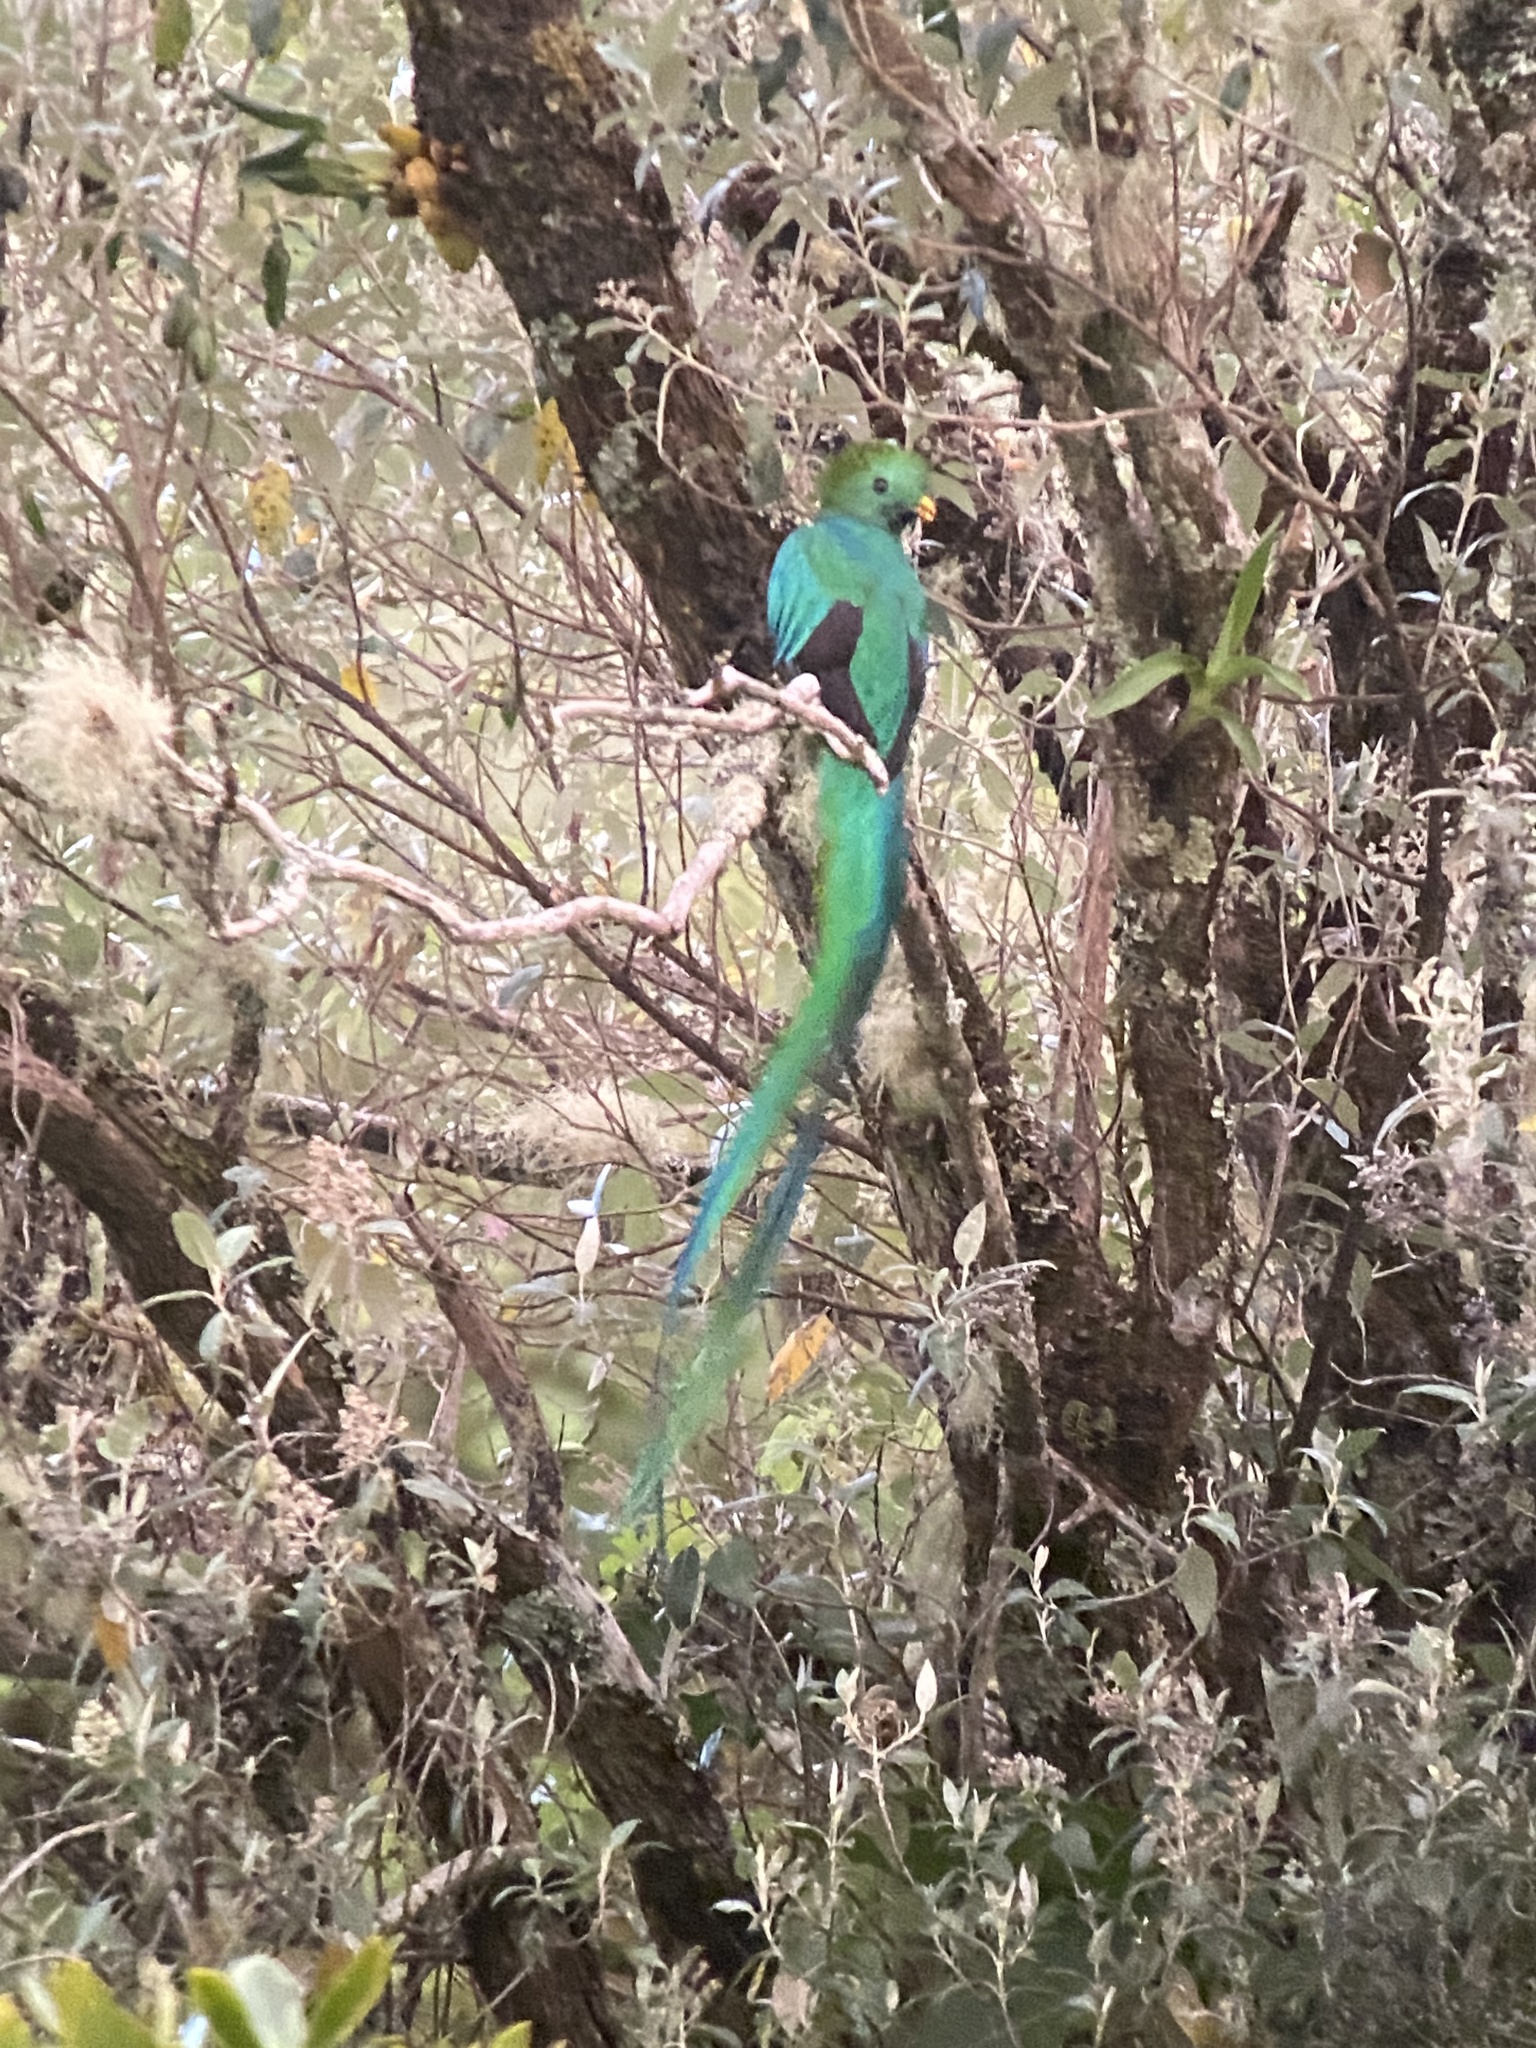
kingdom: Animalia
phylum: Chordata
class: Aves
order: Trogoniformes
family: Trogonidae
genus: Pharomachrus
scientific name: Pharomachrus mocinno
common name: Resplendent quetzal
